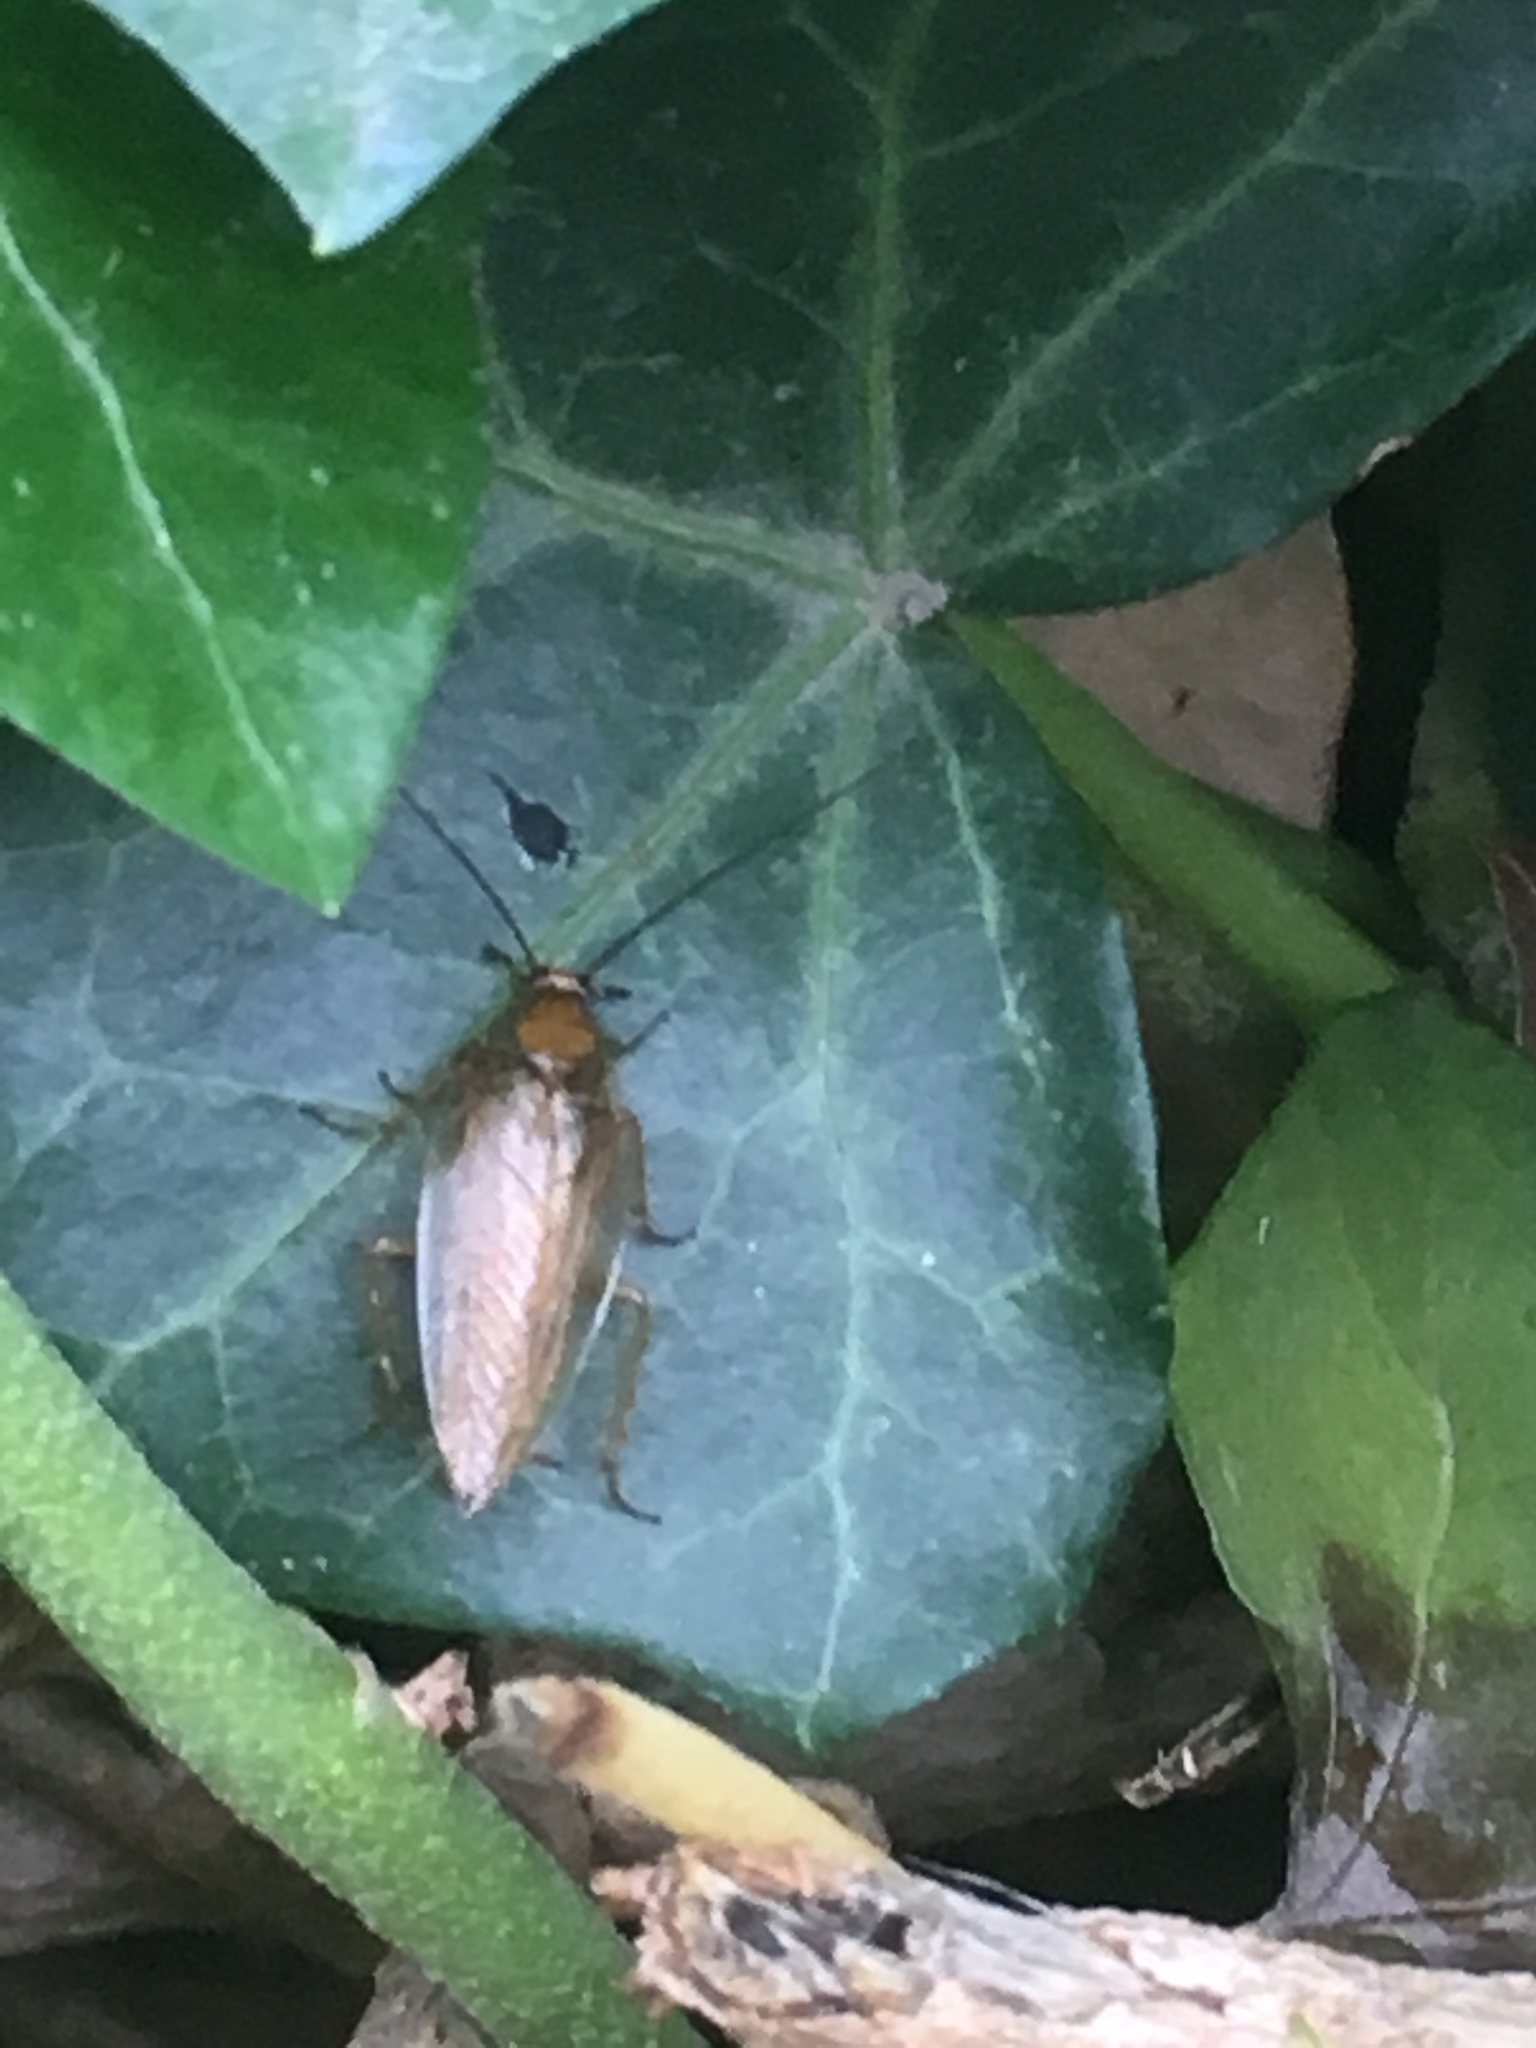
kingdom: Animalia
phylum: Arthropoda
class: Insecta
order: Blattodea
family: Ectobiidae
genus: Ectobius
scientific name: Ectobius vittiventris
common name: Garden cockroach
